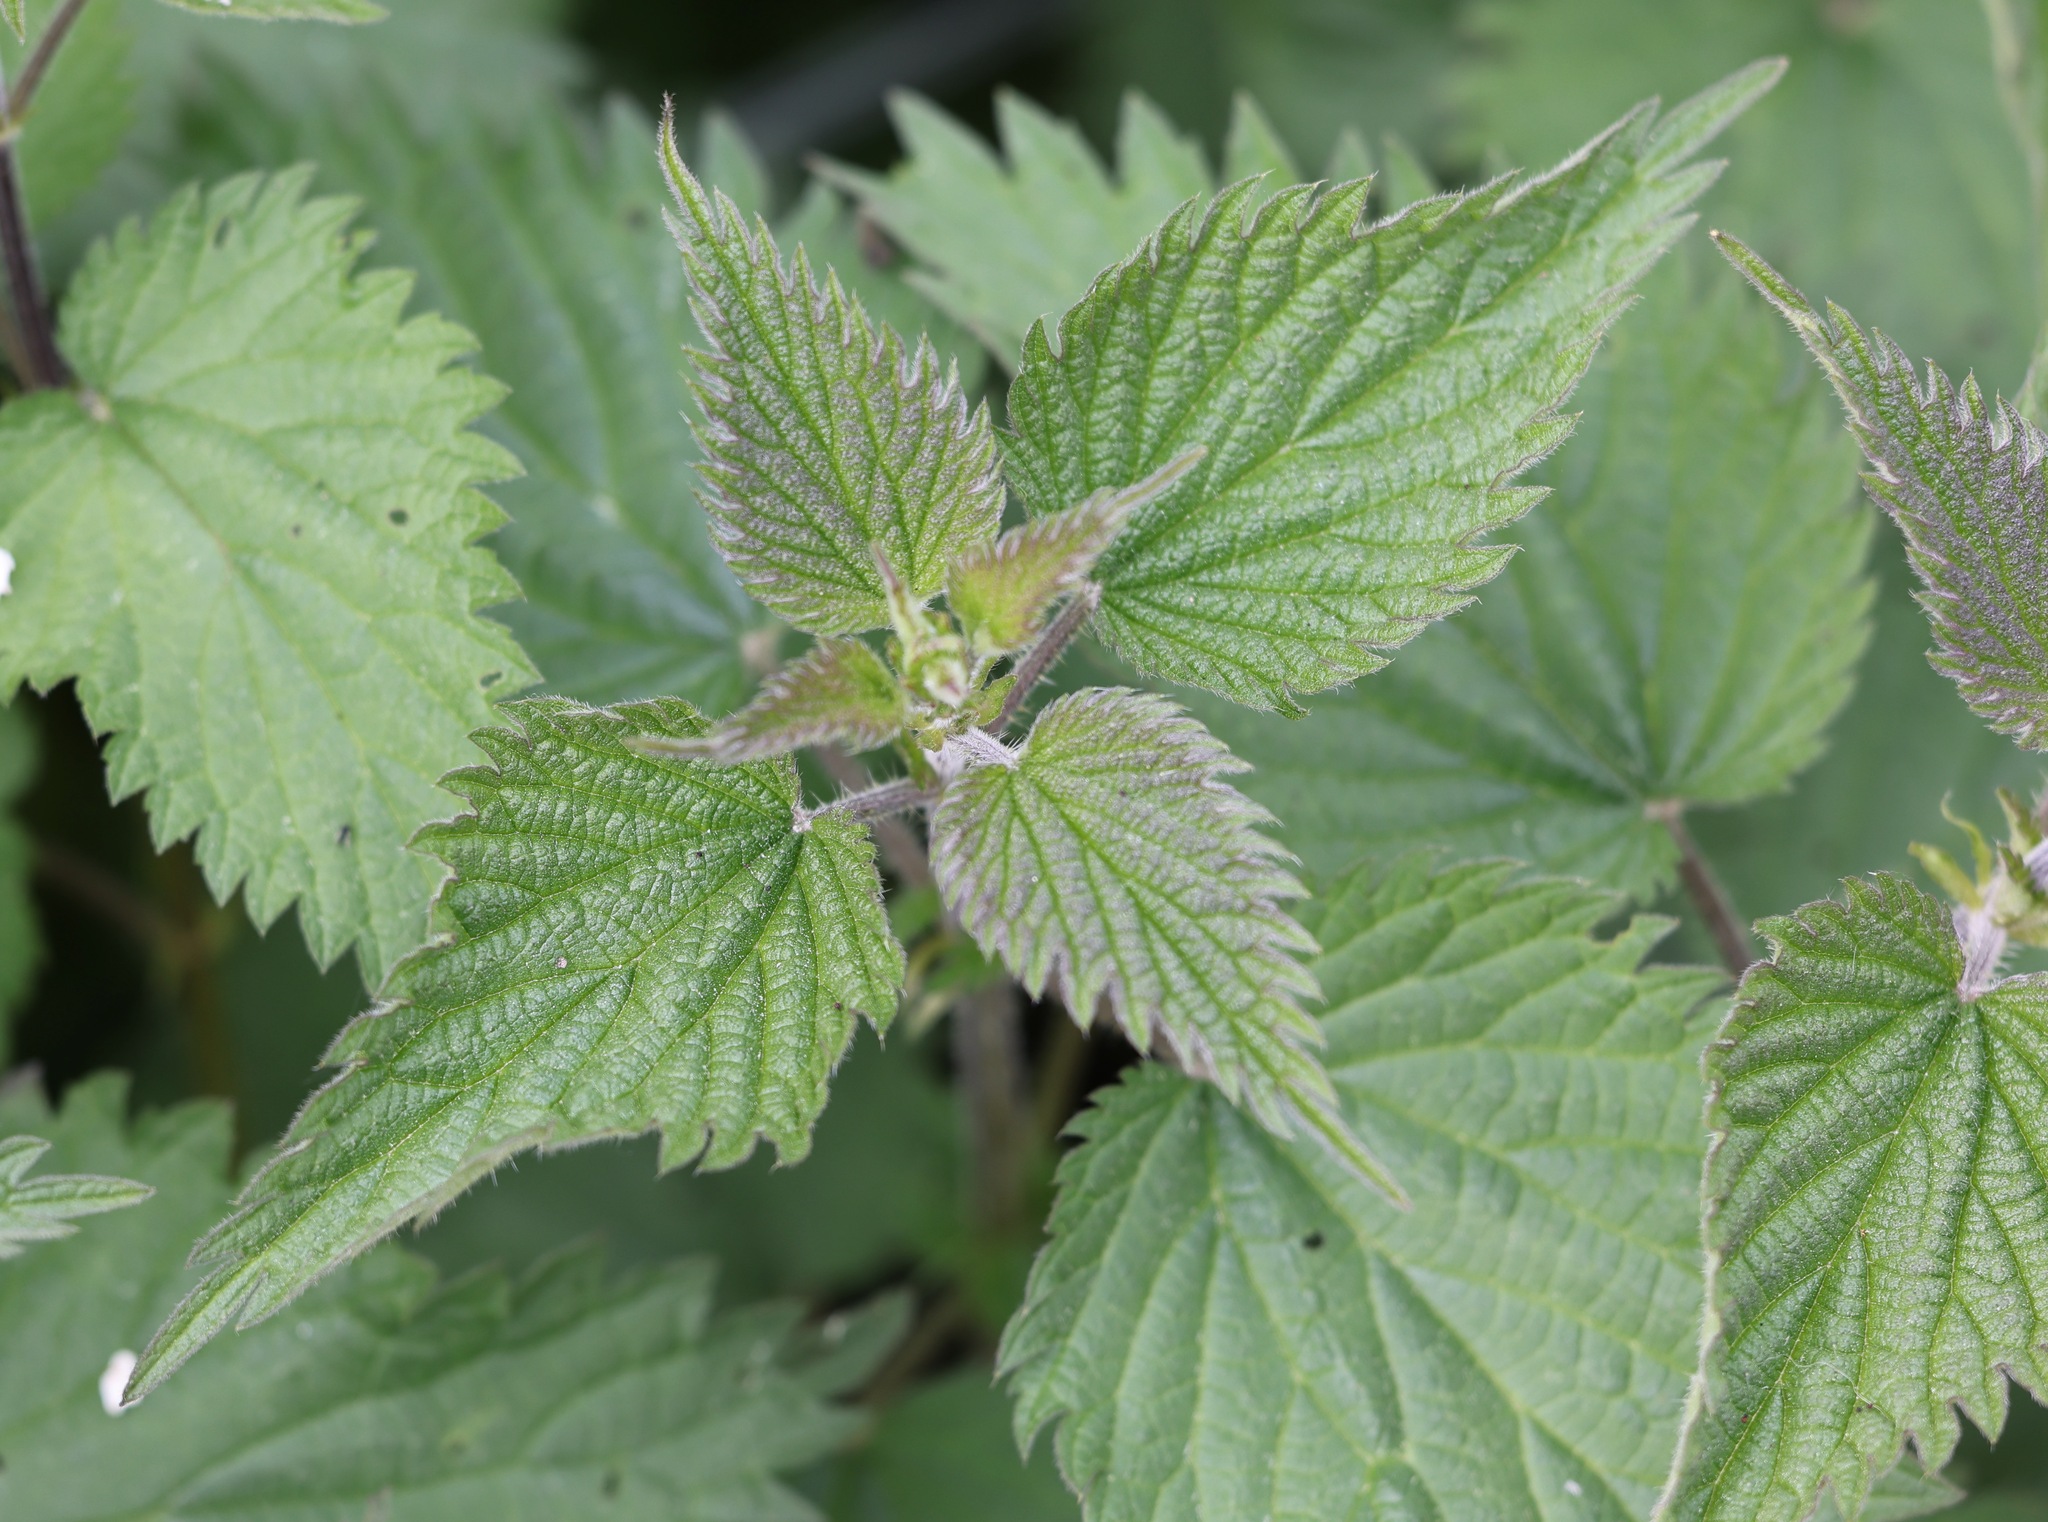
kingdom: Plantae
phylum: Tracheophyta
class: Magnoliopsida
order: Rosales
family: Urticaceae
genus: Urtica
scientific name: Urtica dioica
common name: Common nettle
